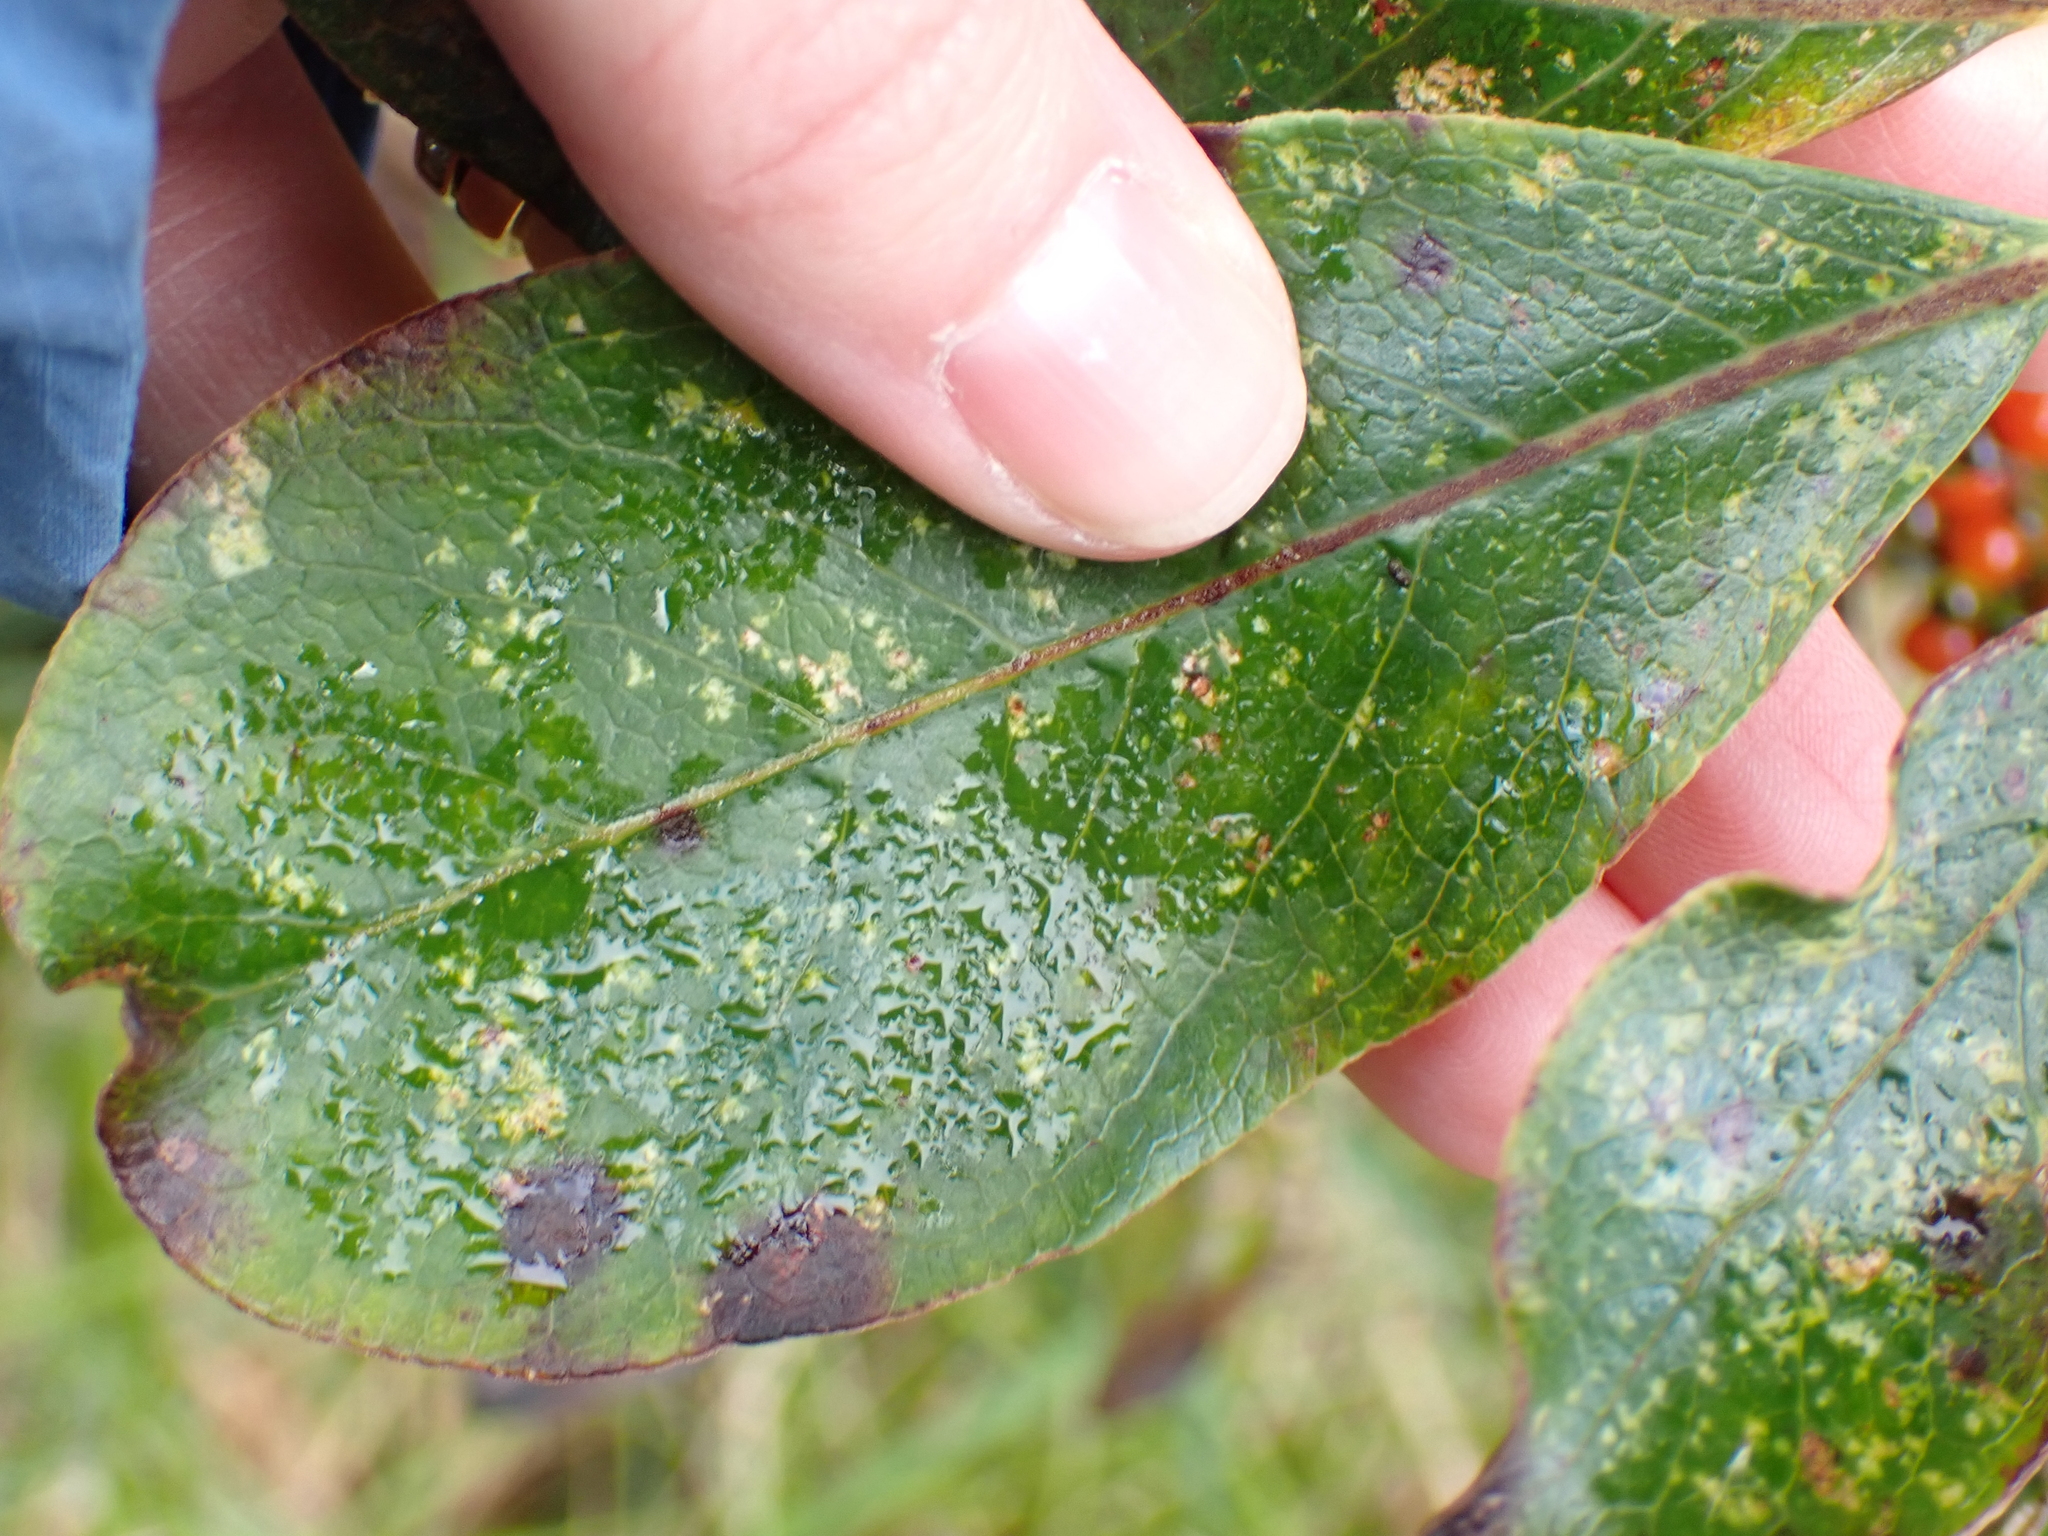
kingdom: Plantae
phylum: Tracheophyta
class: Magnoliopsida
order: Gentianales
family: Rubiaceae
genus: Coprosma
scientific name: Coprosma autumnalis
